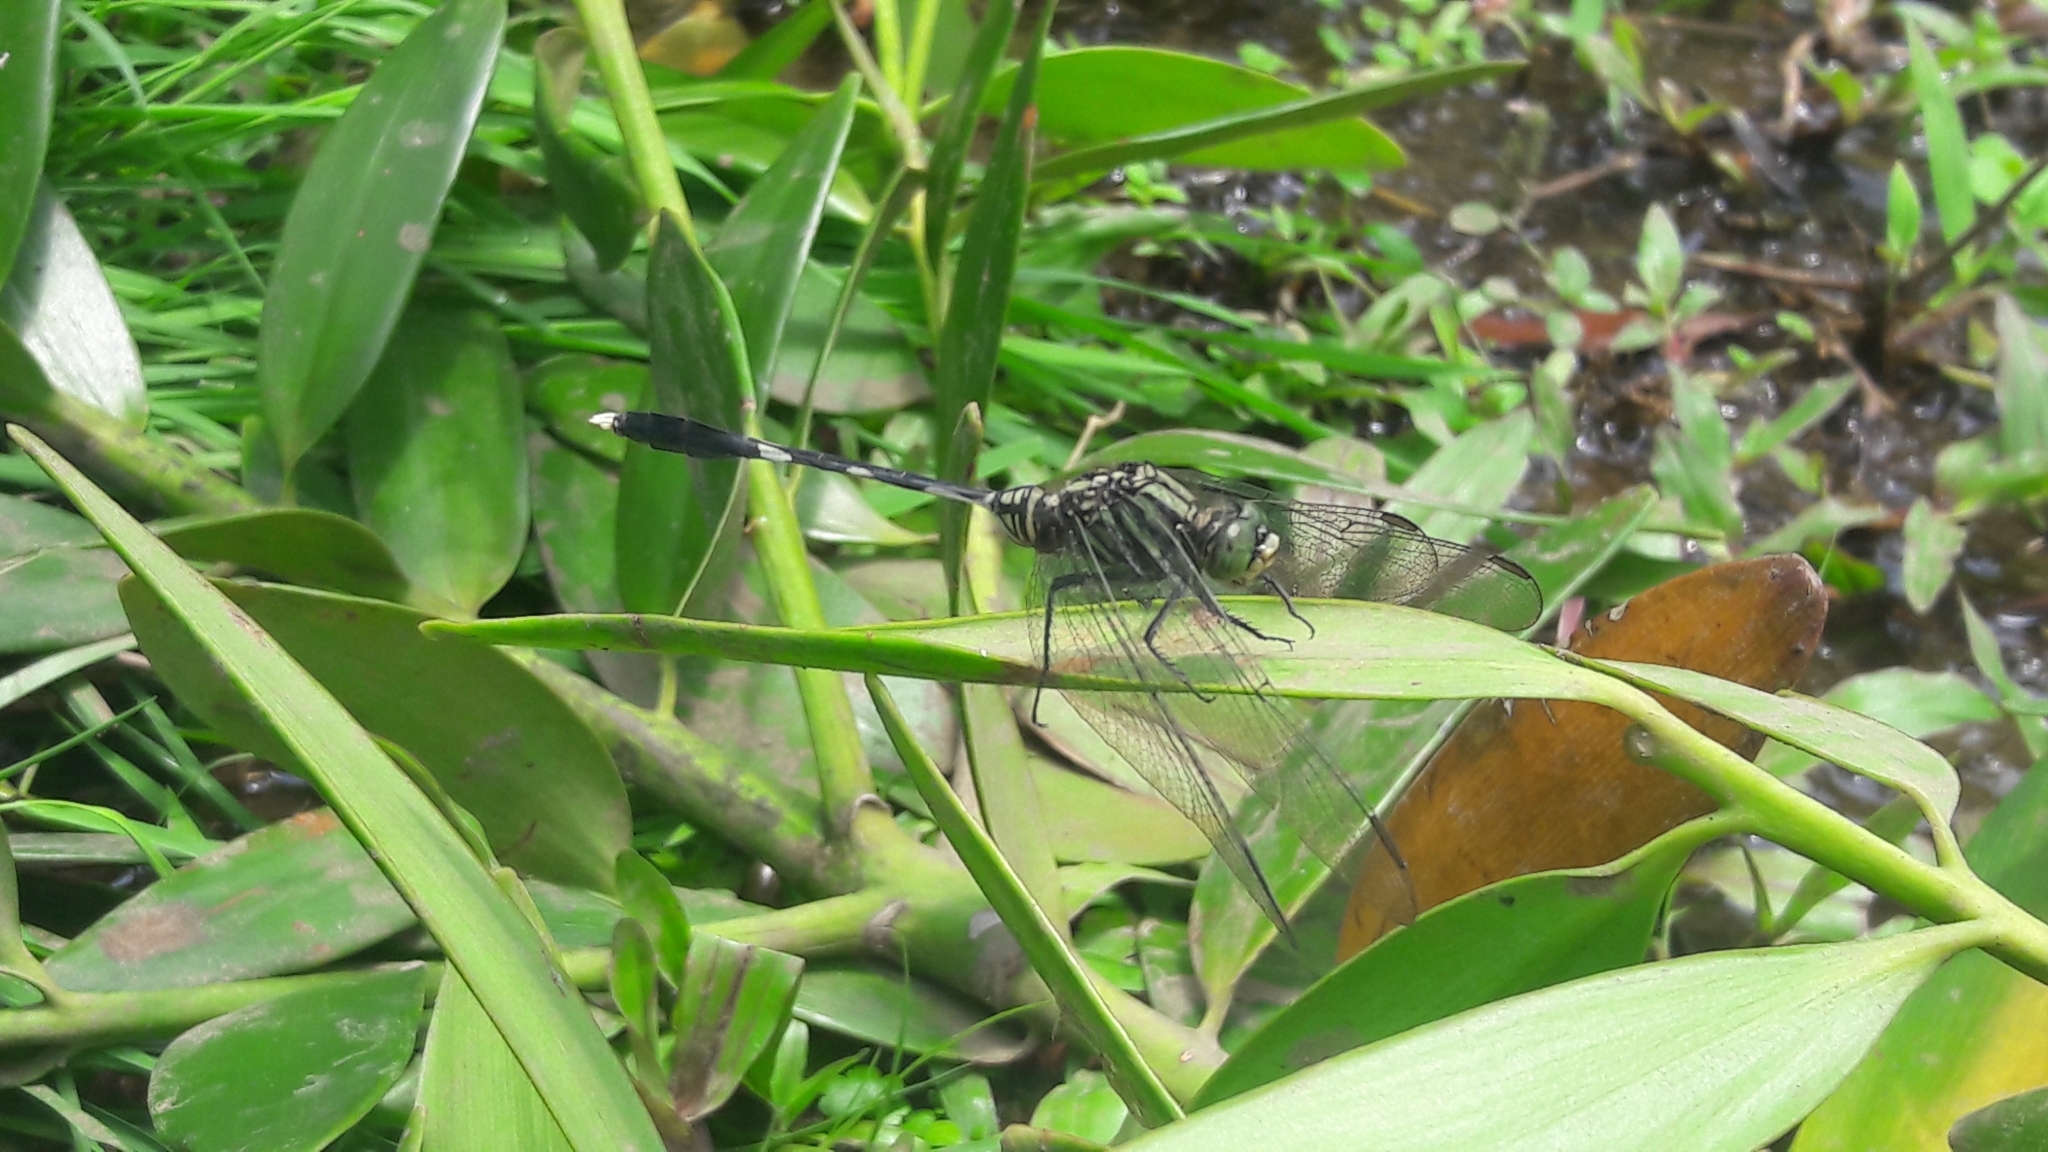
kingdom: Animalia
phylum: Arthropoda
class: Insecta
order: Odonata
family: Libellulidae
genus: Orthetrum
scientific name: Orthetrum sabina
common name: Slender skimmer
